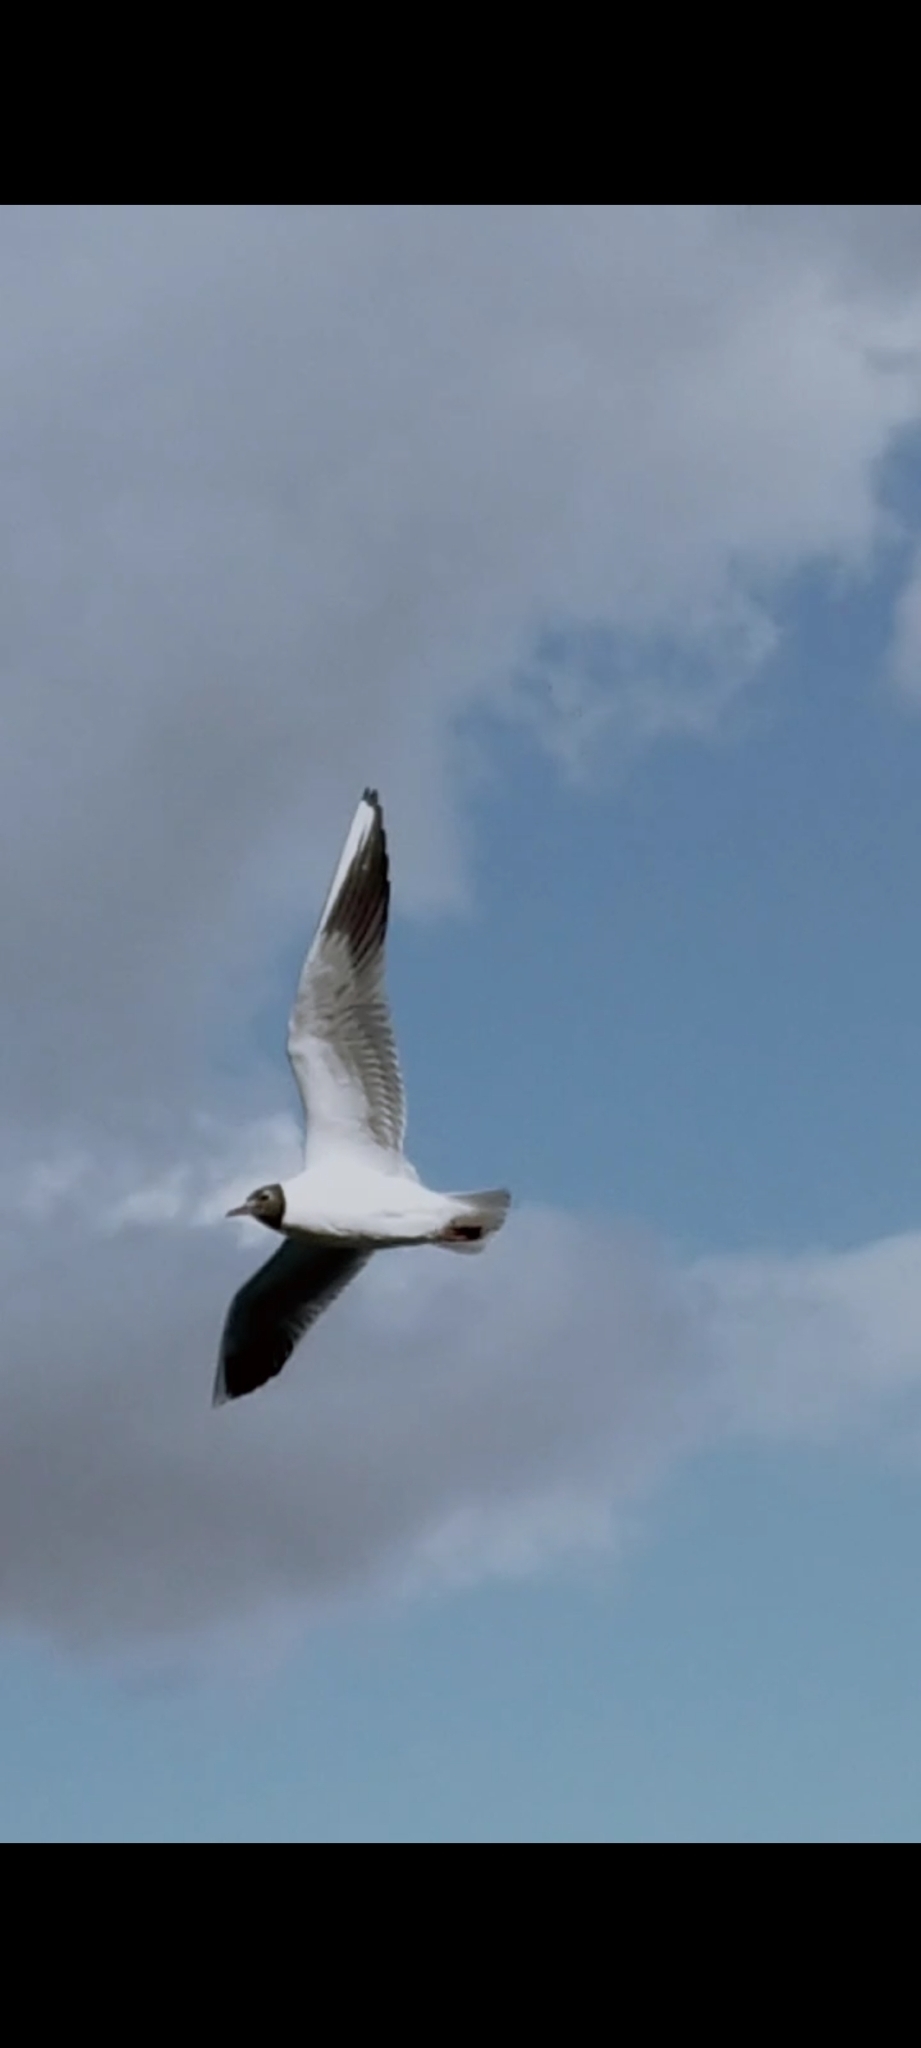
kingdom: Animalia
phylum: Chordata
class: Aves
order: Charadriiformes
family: Laridae
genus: Chroicocephalus
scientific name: Chroicocephalus ridibundus
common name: Black-headed gull
